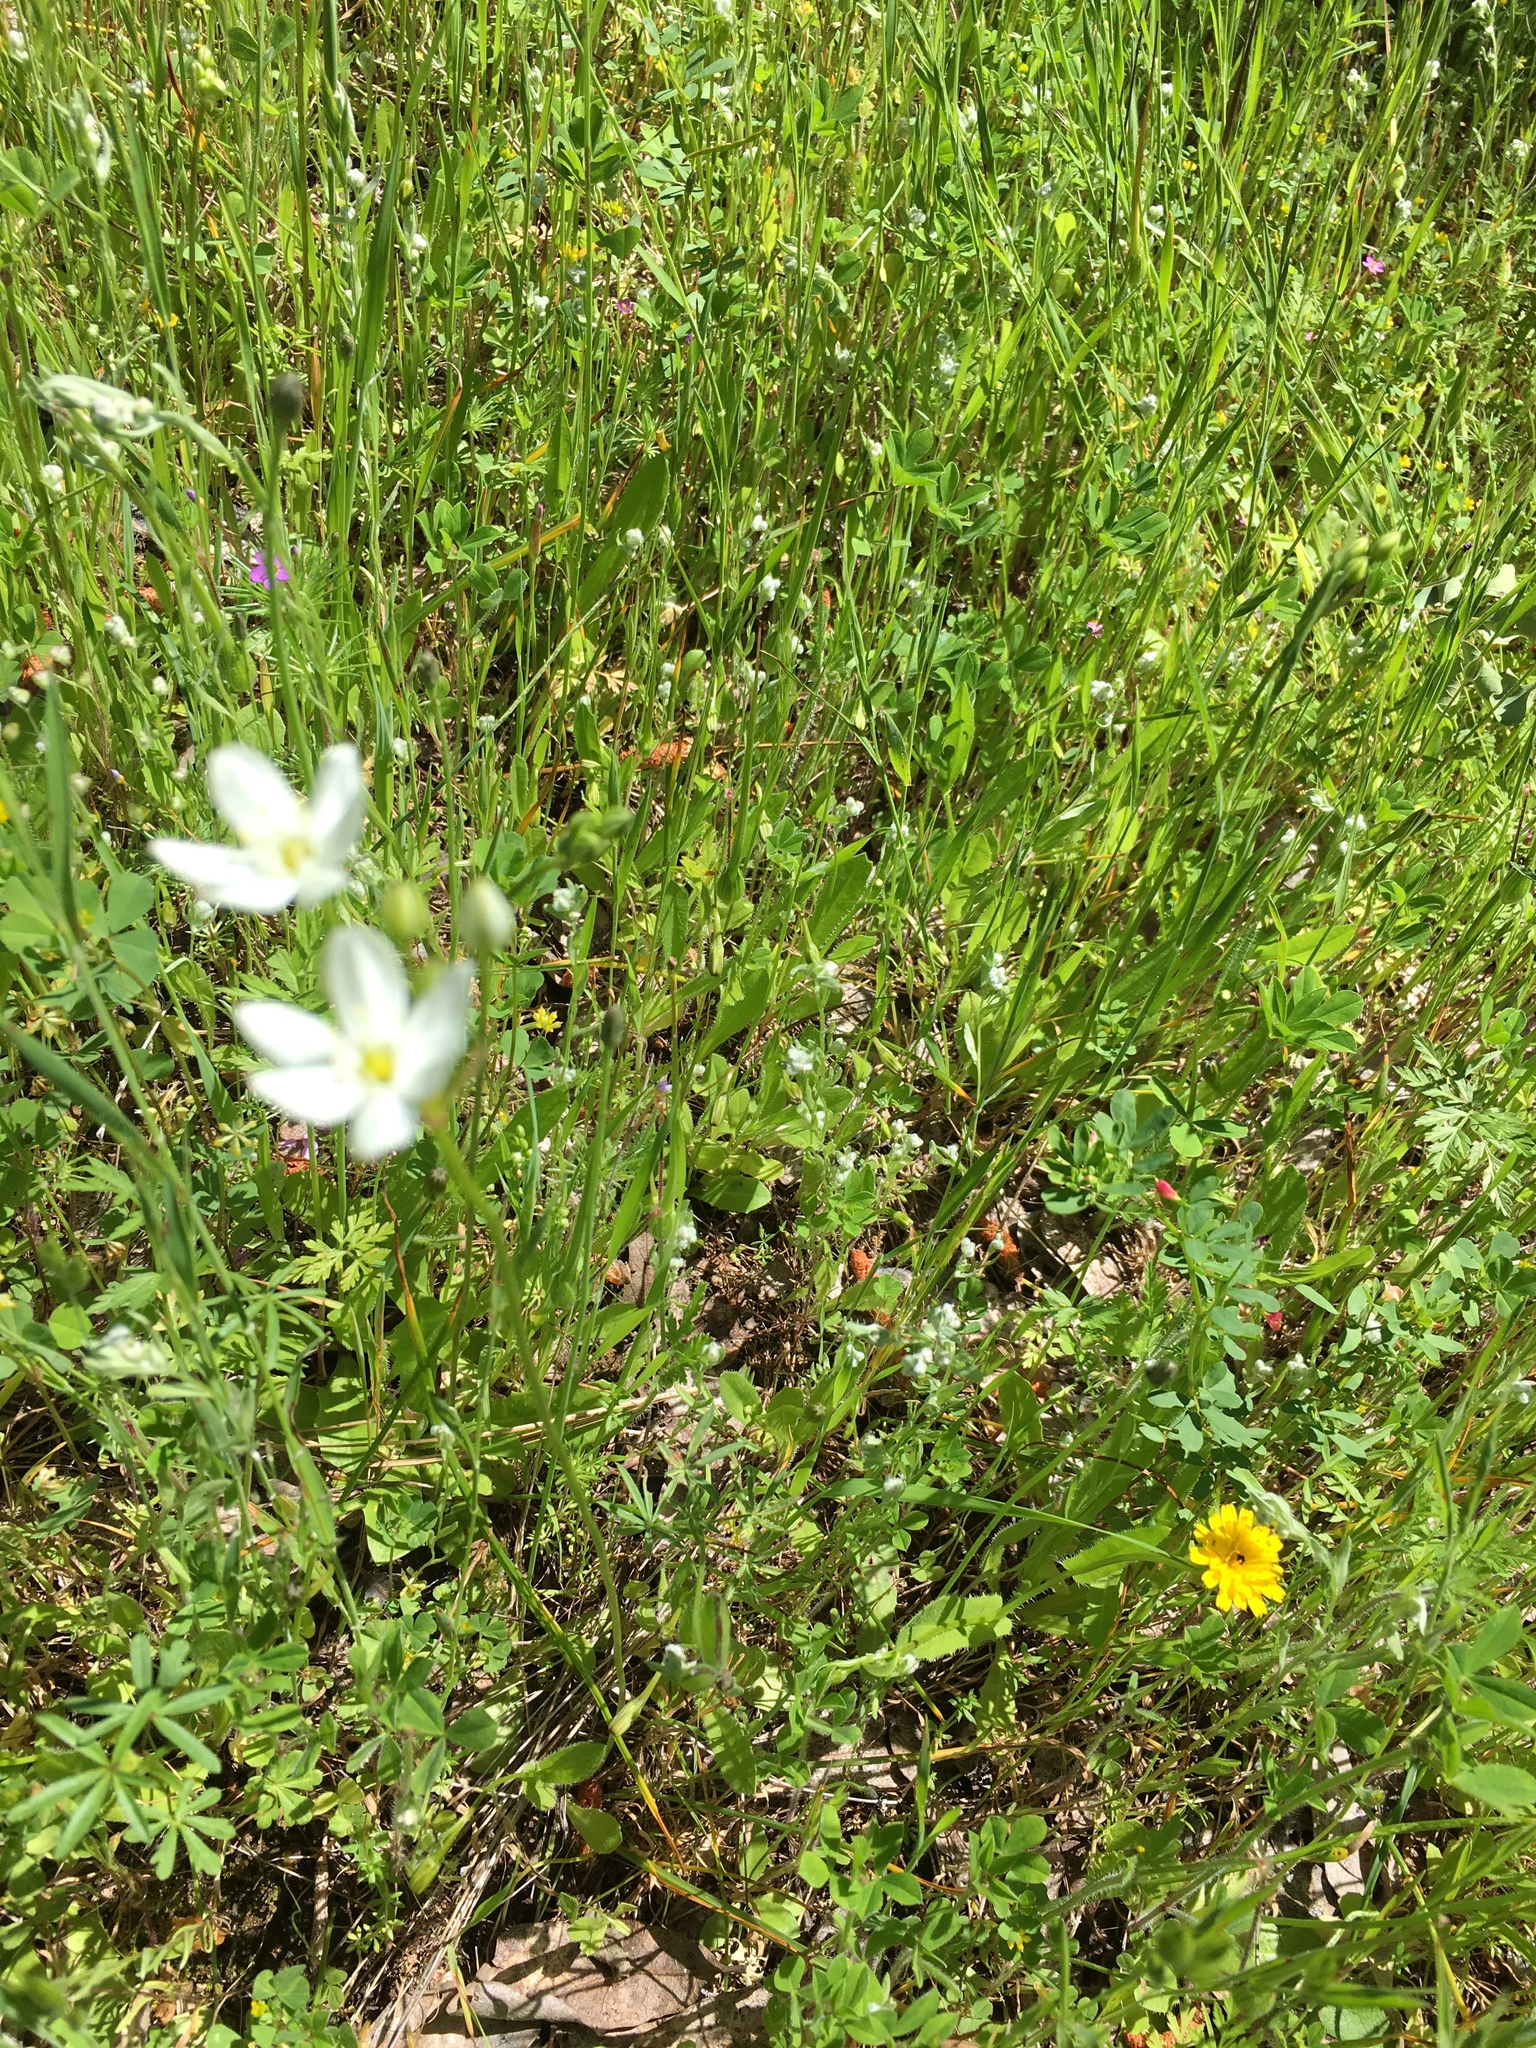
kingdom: Plantae
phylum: Tracheophyta
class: Liliopsida
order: Asparagales
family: Asparagaceae
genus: Triteleia
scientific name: Triteleia hyacinthina
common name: White brodiaea
